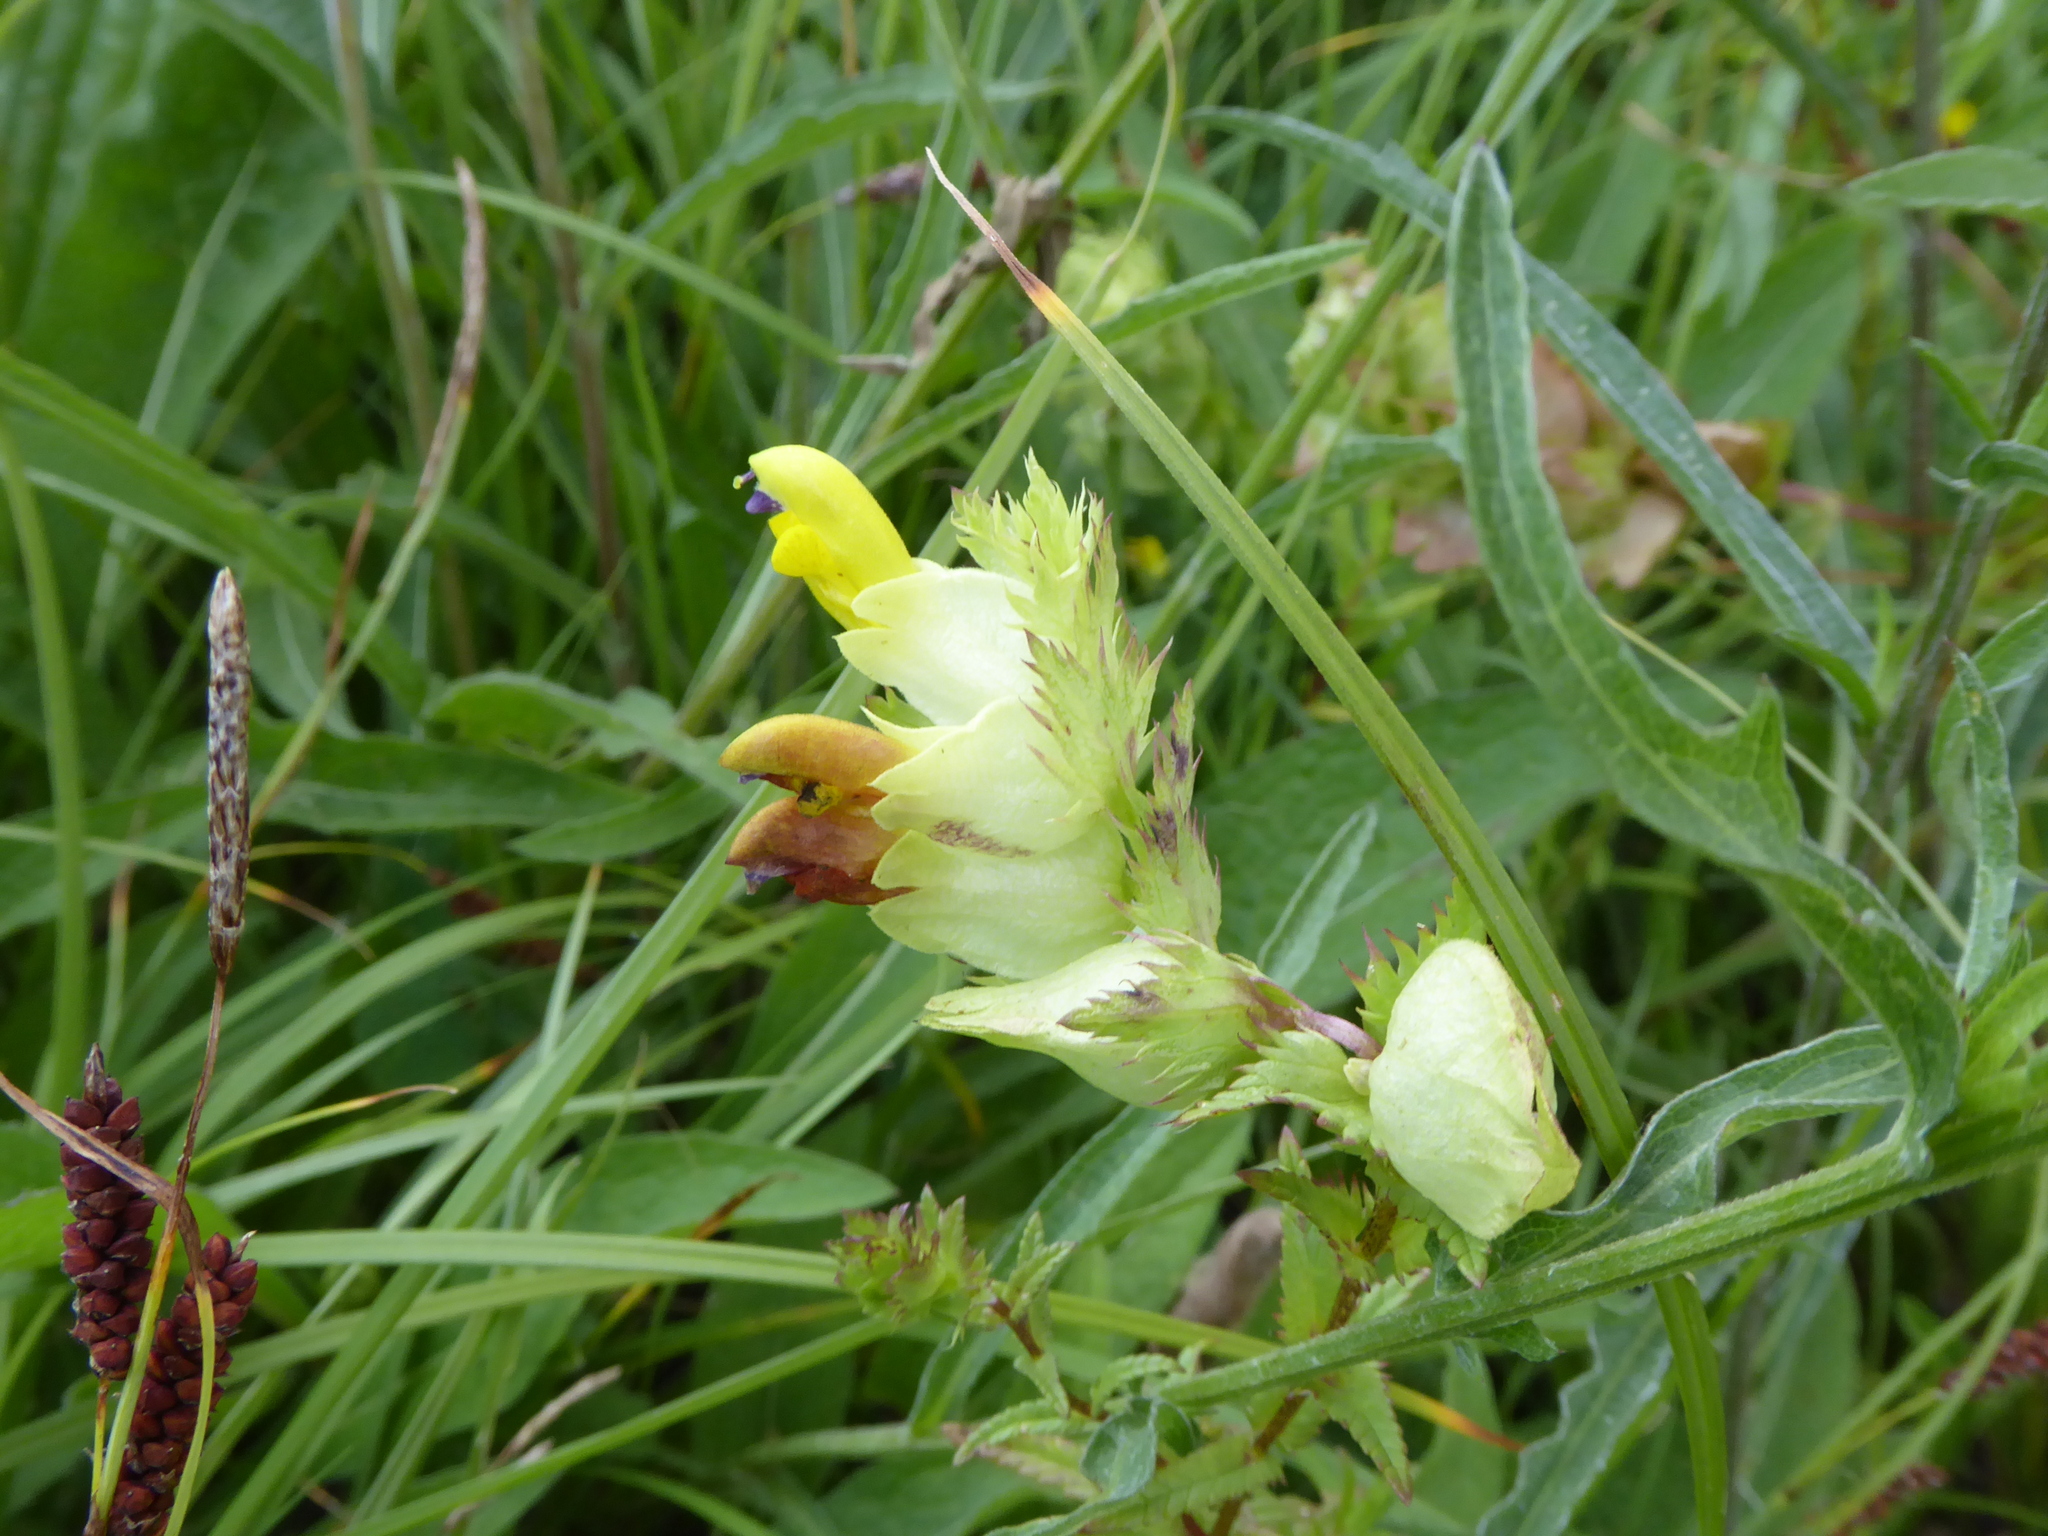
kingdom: Plantae
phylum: Tracheophyta
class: Magnoliopsida
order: Lamiales
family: Orobanchaceae
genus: Rhinanthus
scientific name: Rhinanthus minor
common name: Yellow-rattle
